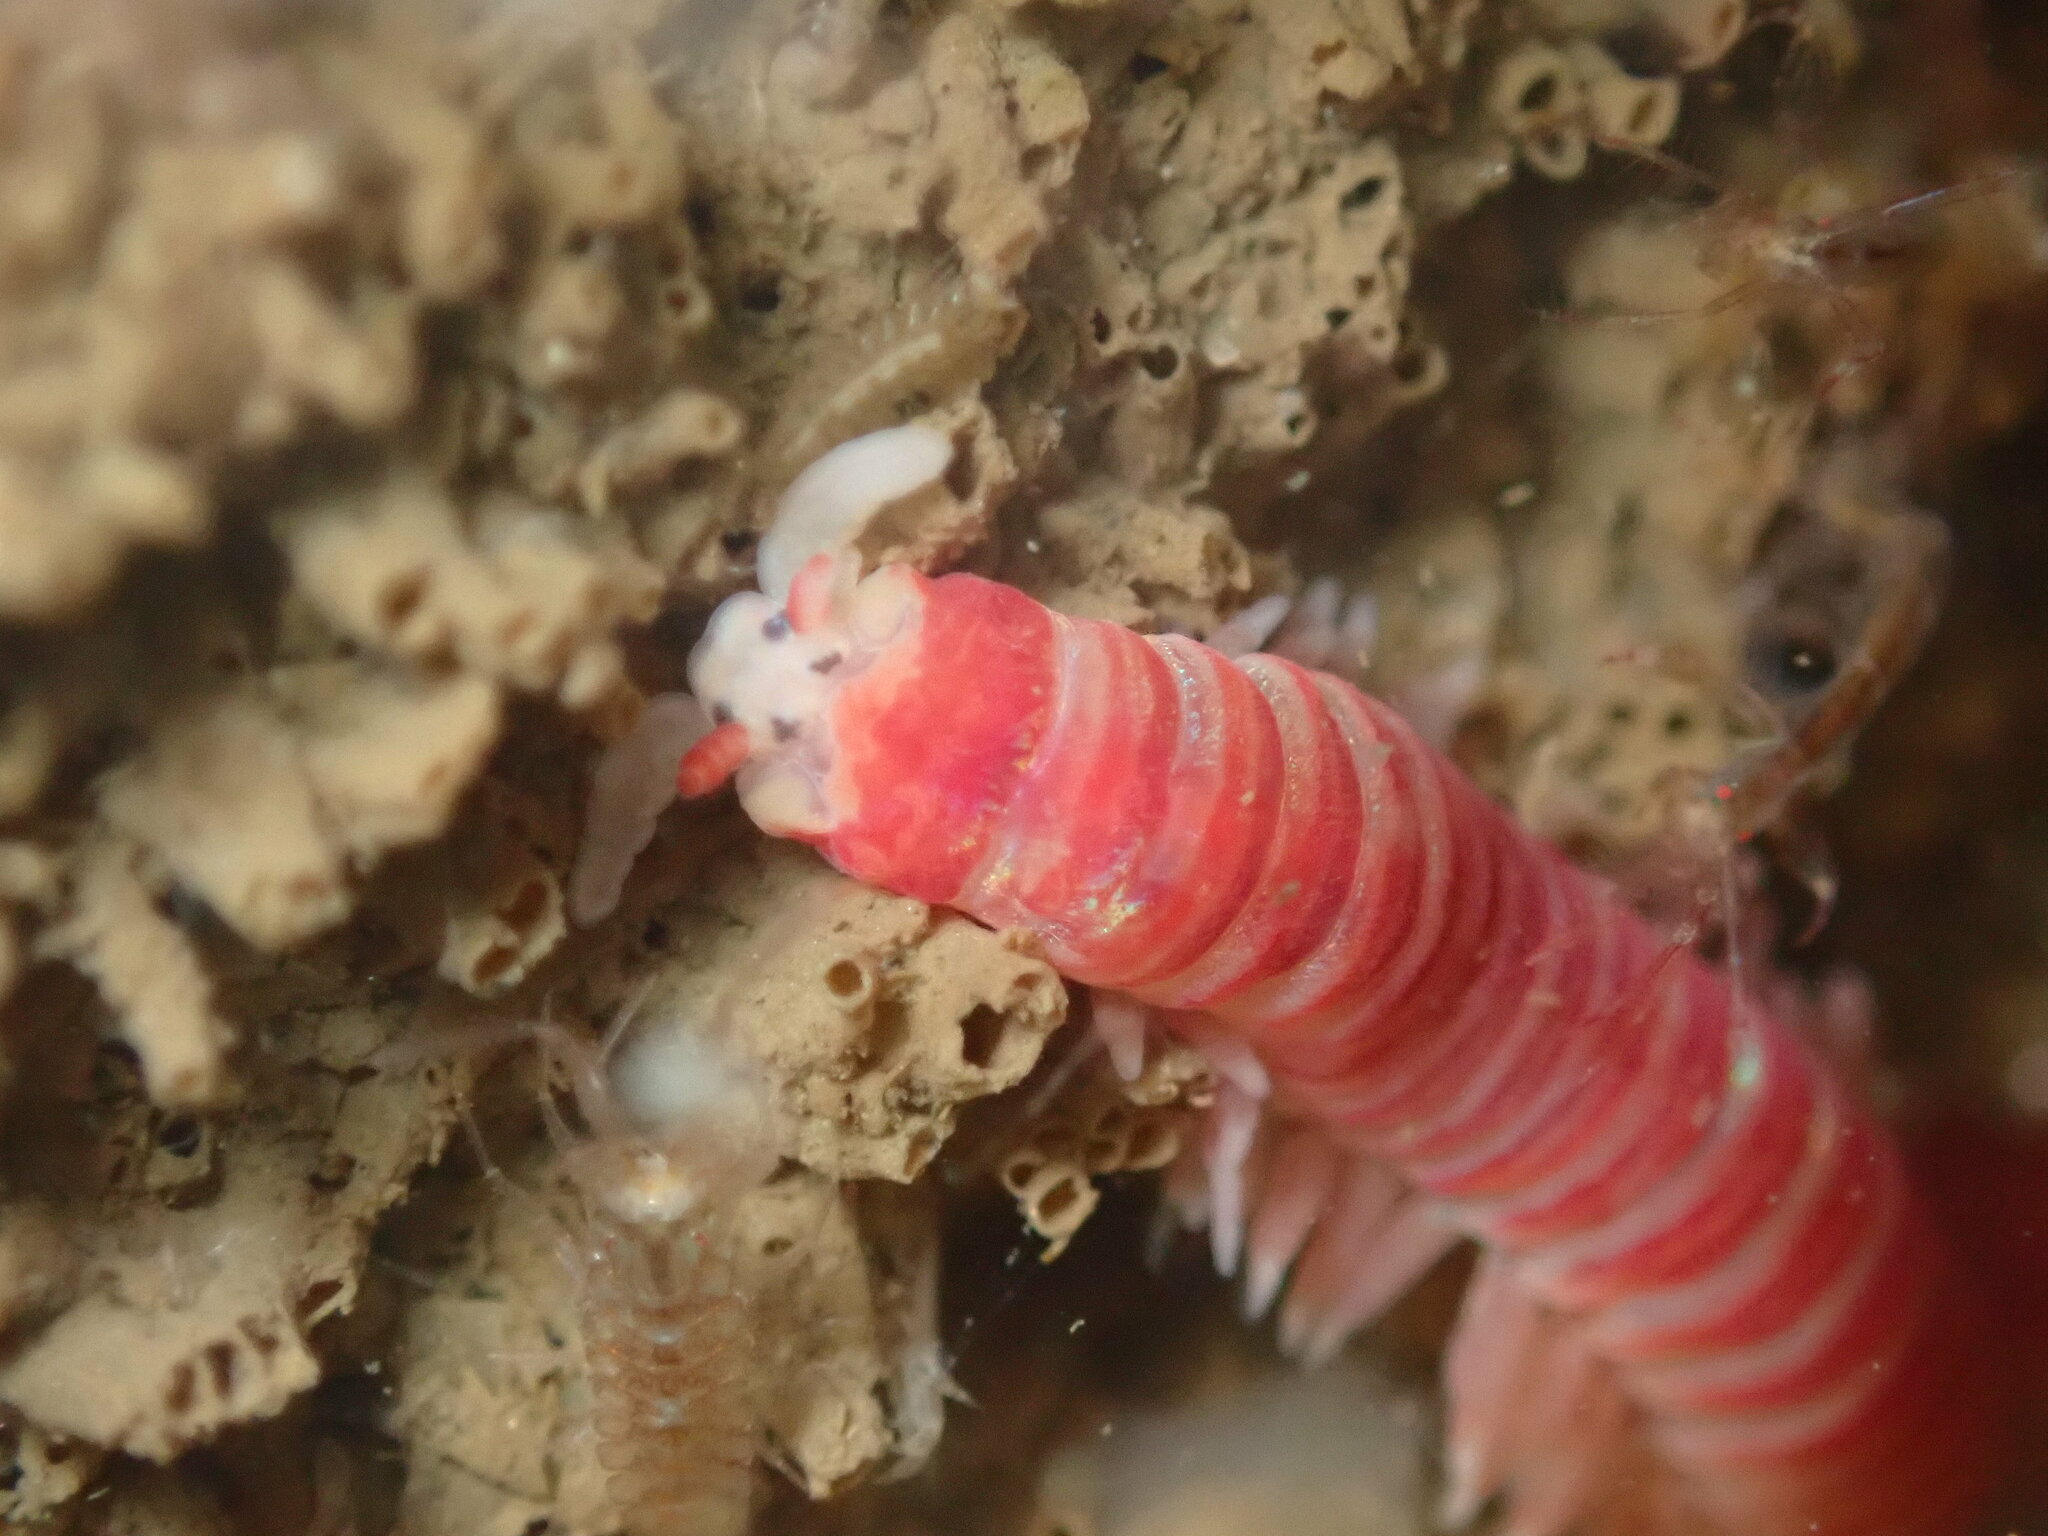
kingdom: Animalia
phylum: Annelida
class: Polychaeta
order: Eunicida
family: Dorvilleidae
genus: Dorvillea
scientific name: Dorvillea moniloceras
